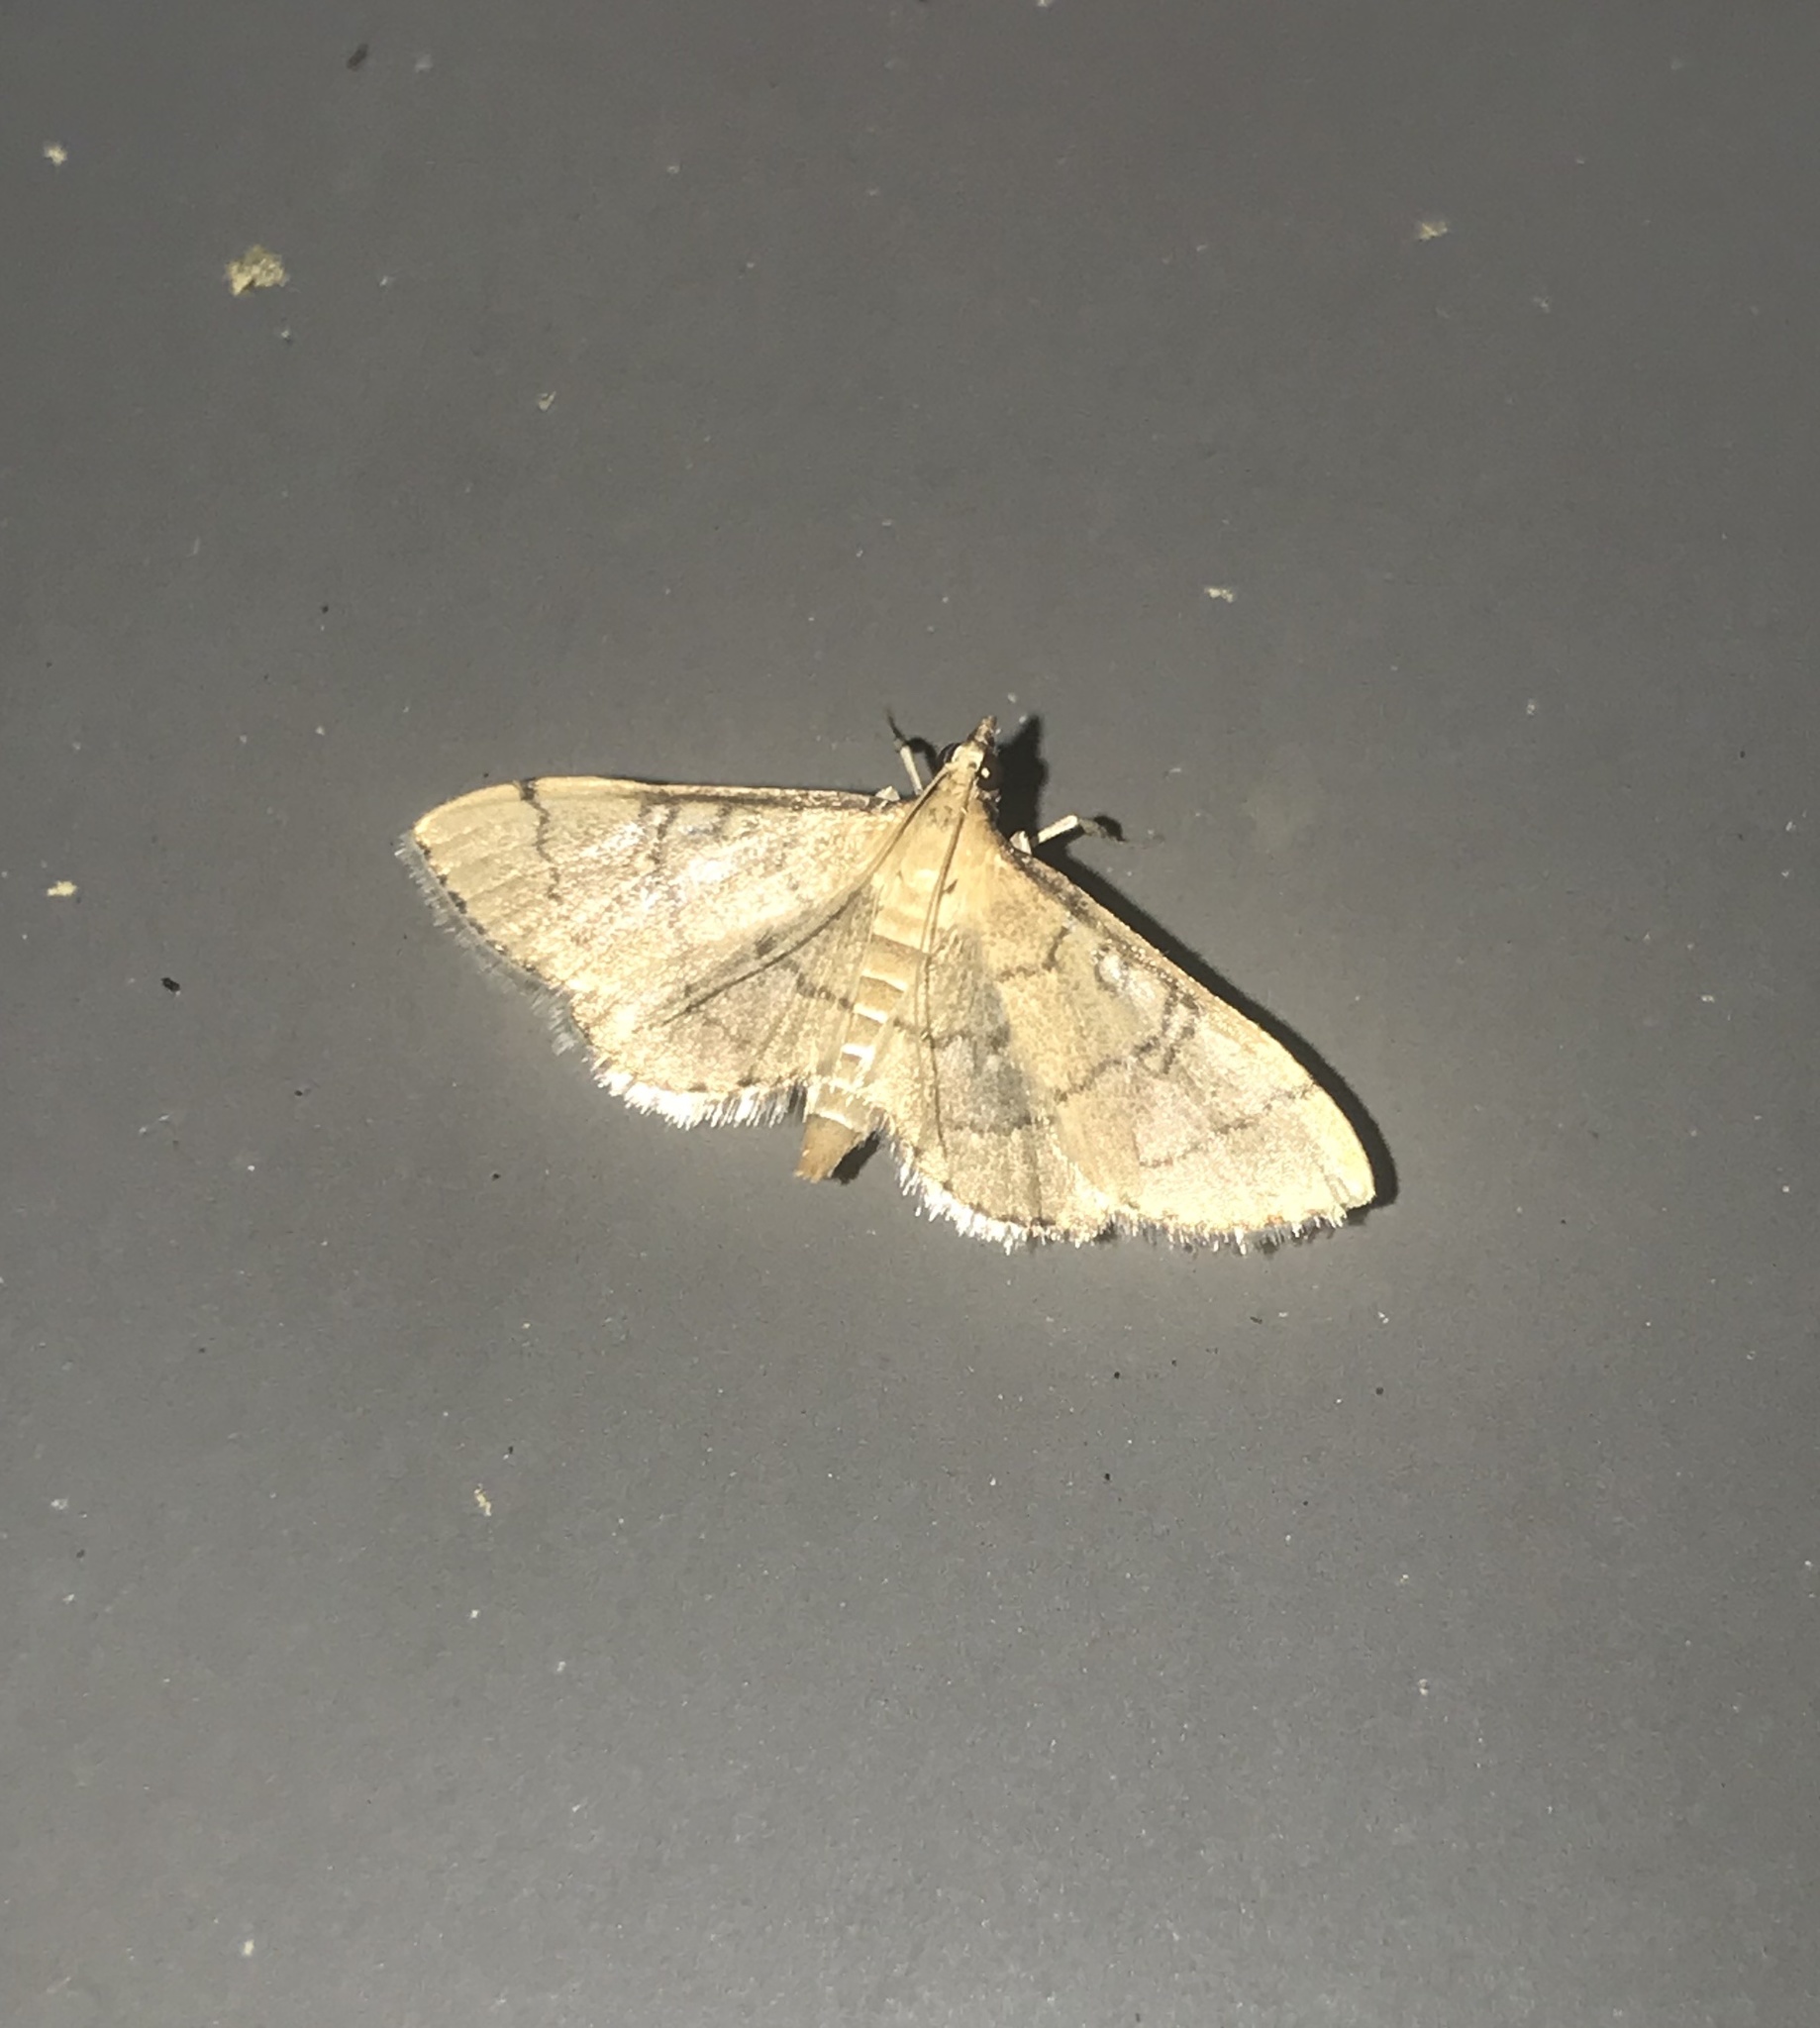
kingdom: Animalia
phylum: Arthropoda
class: Insecta
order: Lepidoptera
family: Crambidae
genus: Lamprosema
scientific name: Lamprosema Blepharomastix ranalis
